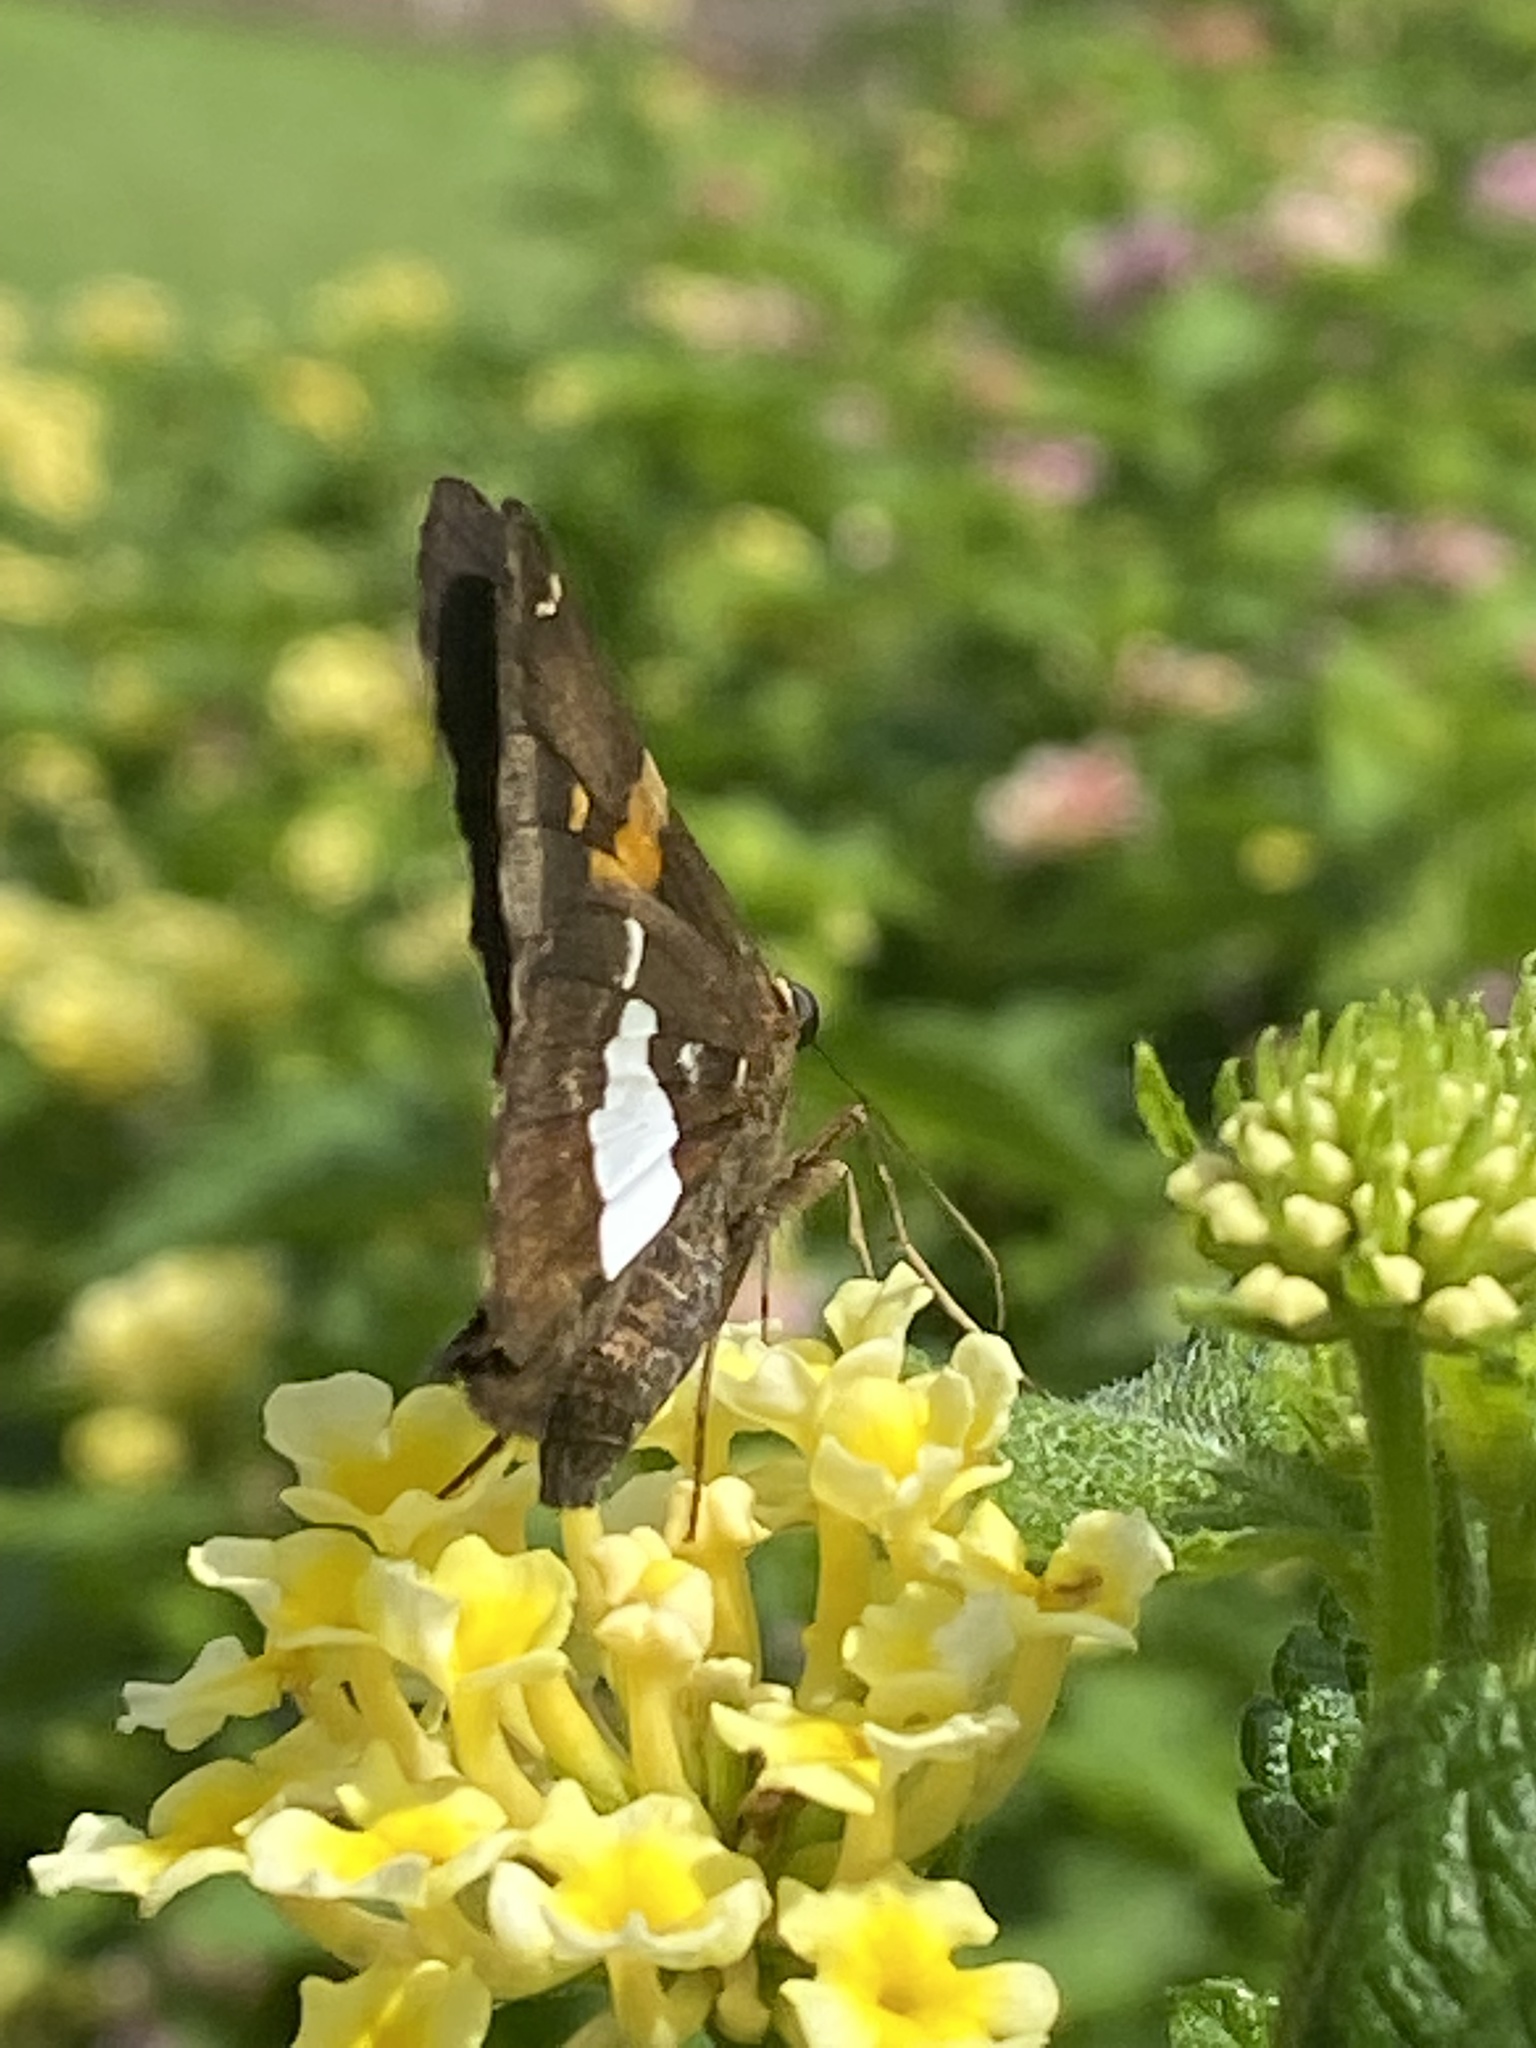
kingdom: Animalia
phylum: Arthropoda
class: Insecta
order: Lepidoptera
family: Hesperiidae
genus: Epargyreus
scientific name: Epargyreus clarus
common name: Silver-spotted skipper
